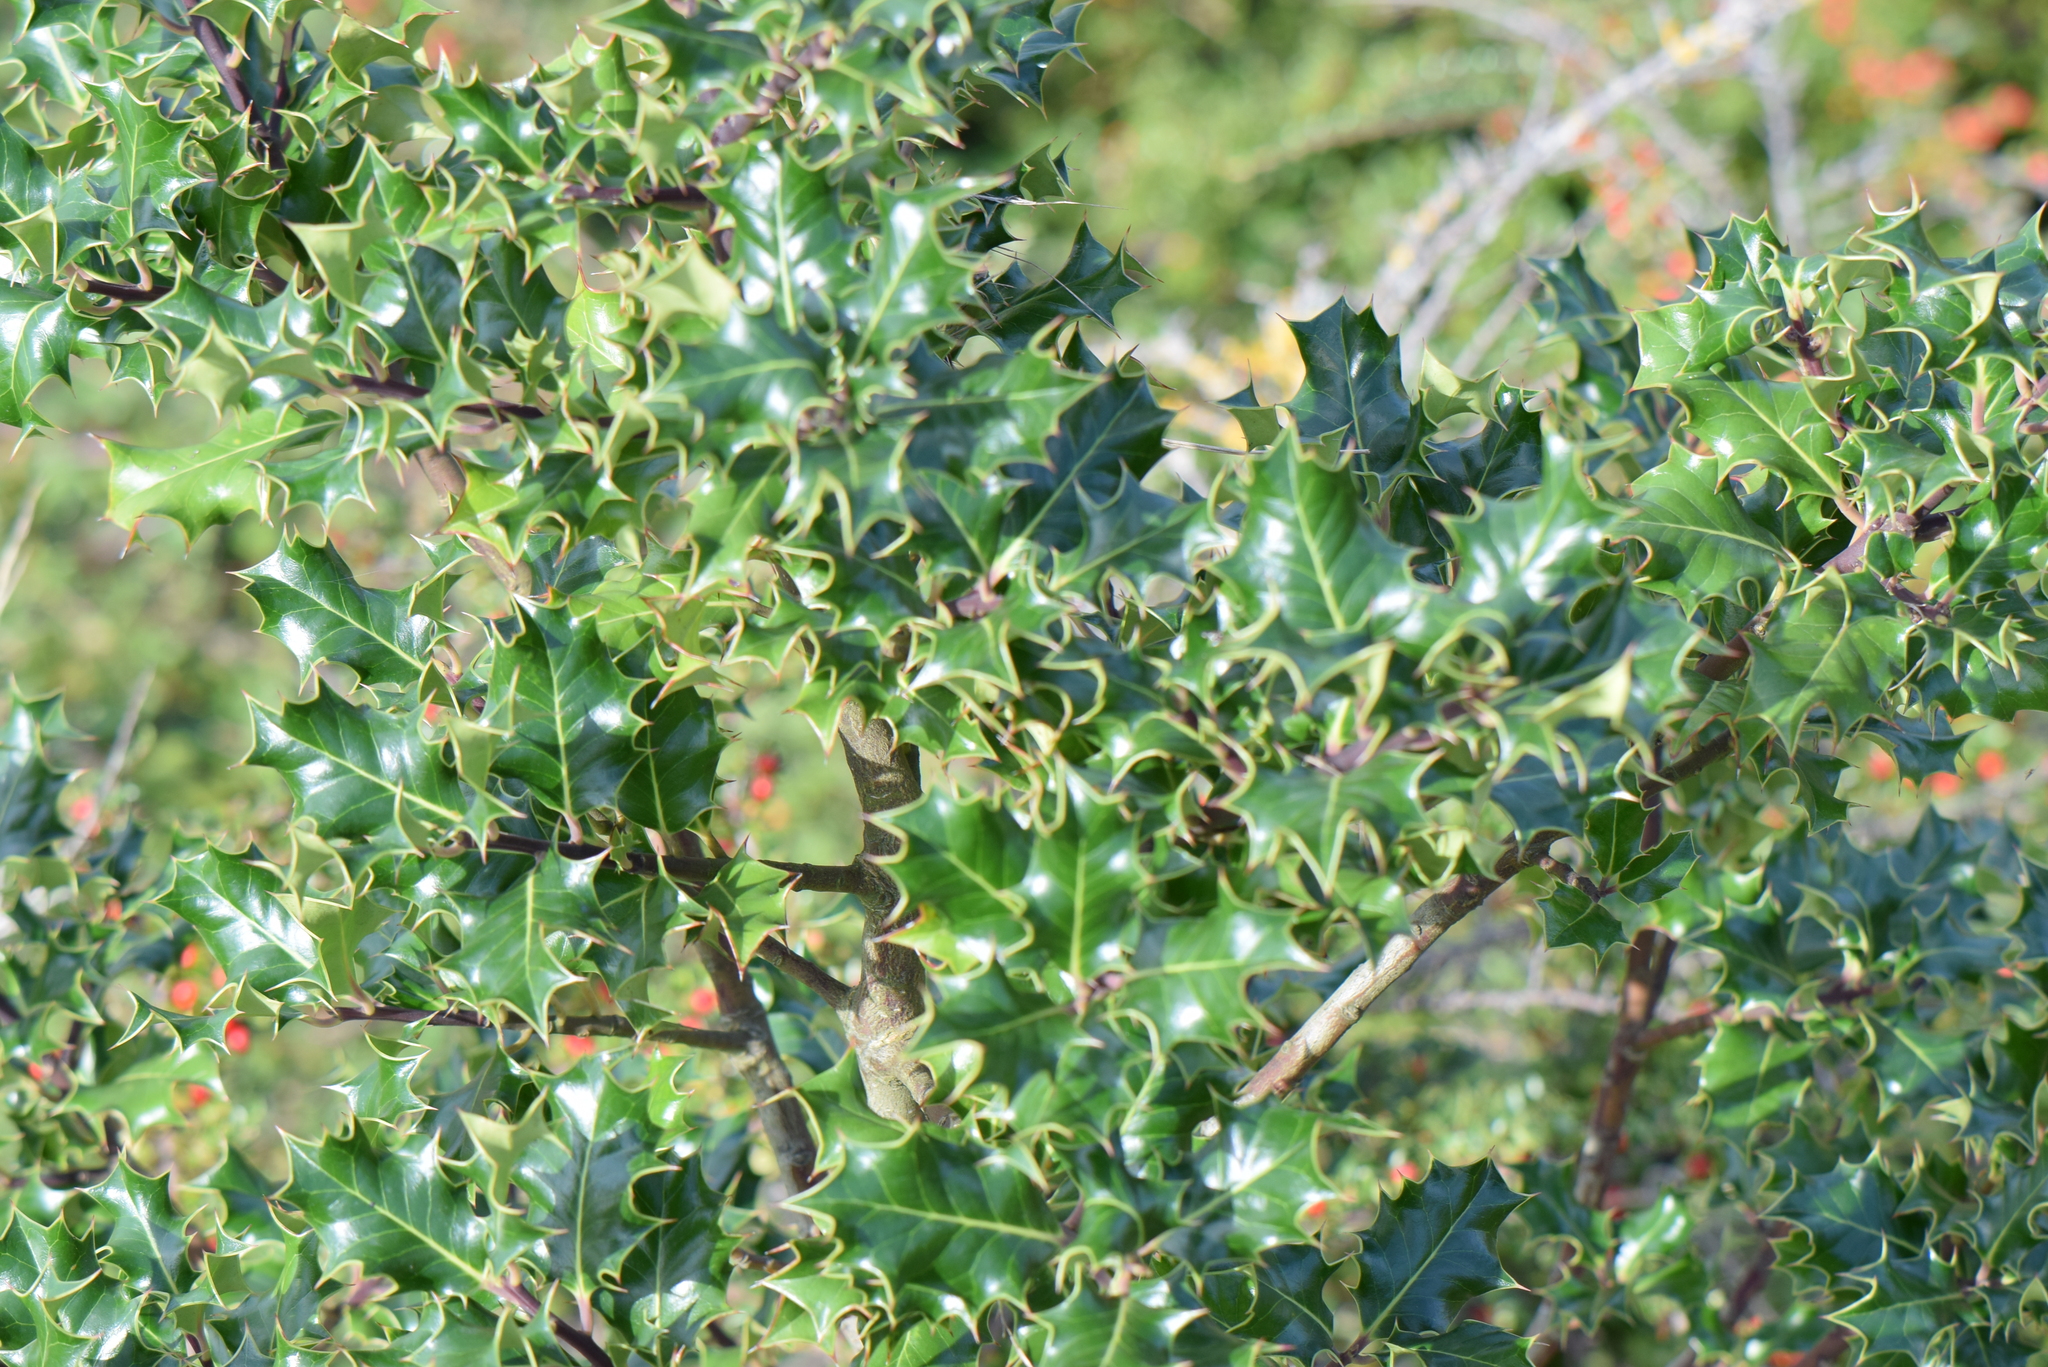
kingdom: Plantae
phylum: Tracheophyta
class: Magnoliopsida
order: Aquifoliales
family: Aquifoliaceae
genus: Ilex
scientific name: Ilex aquifolium
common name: English holly
